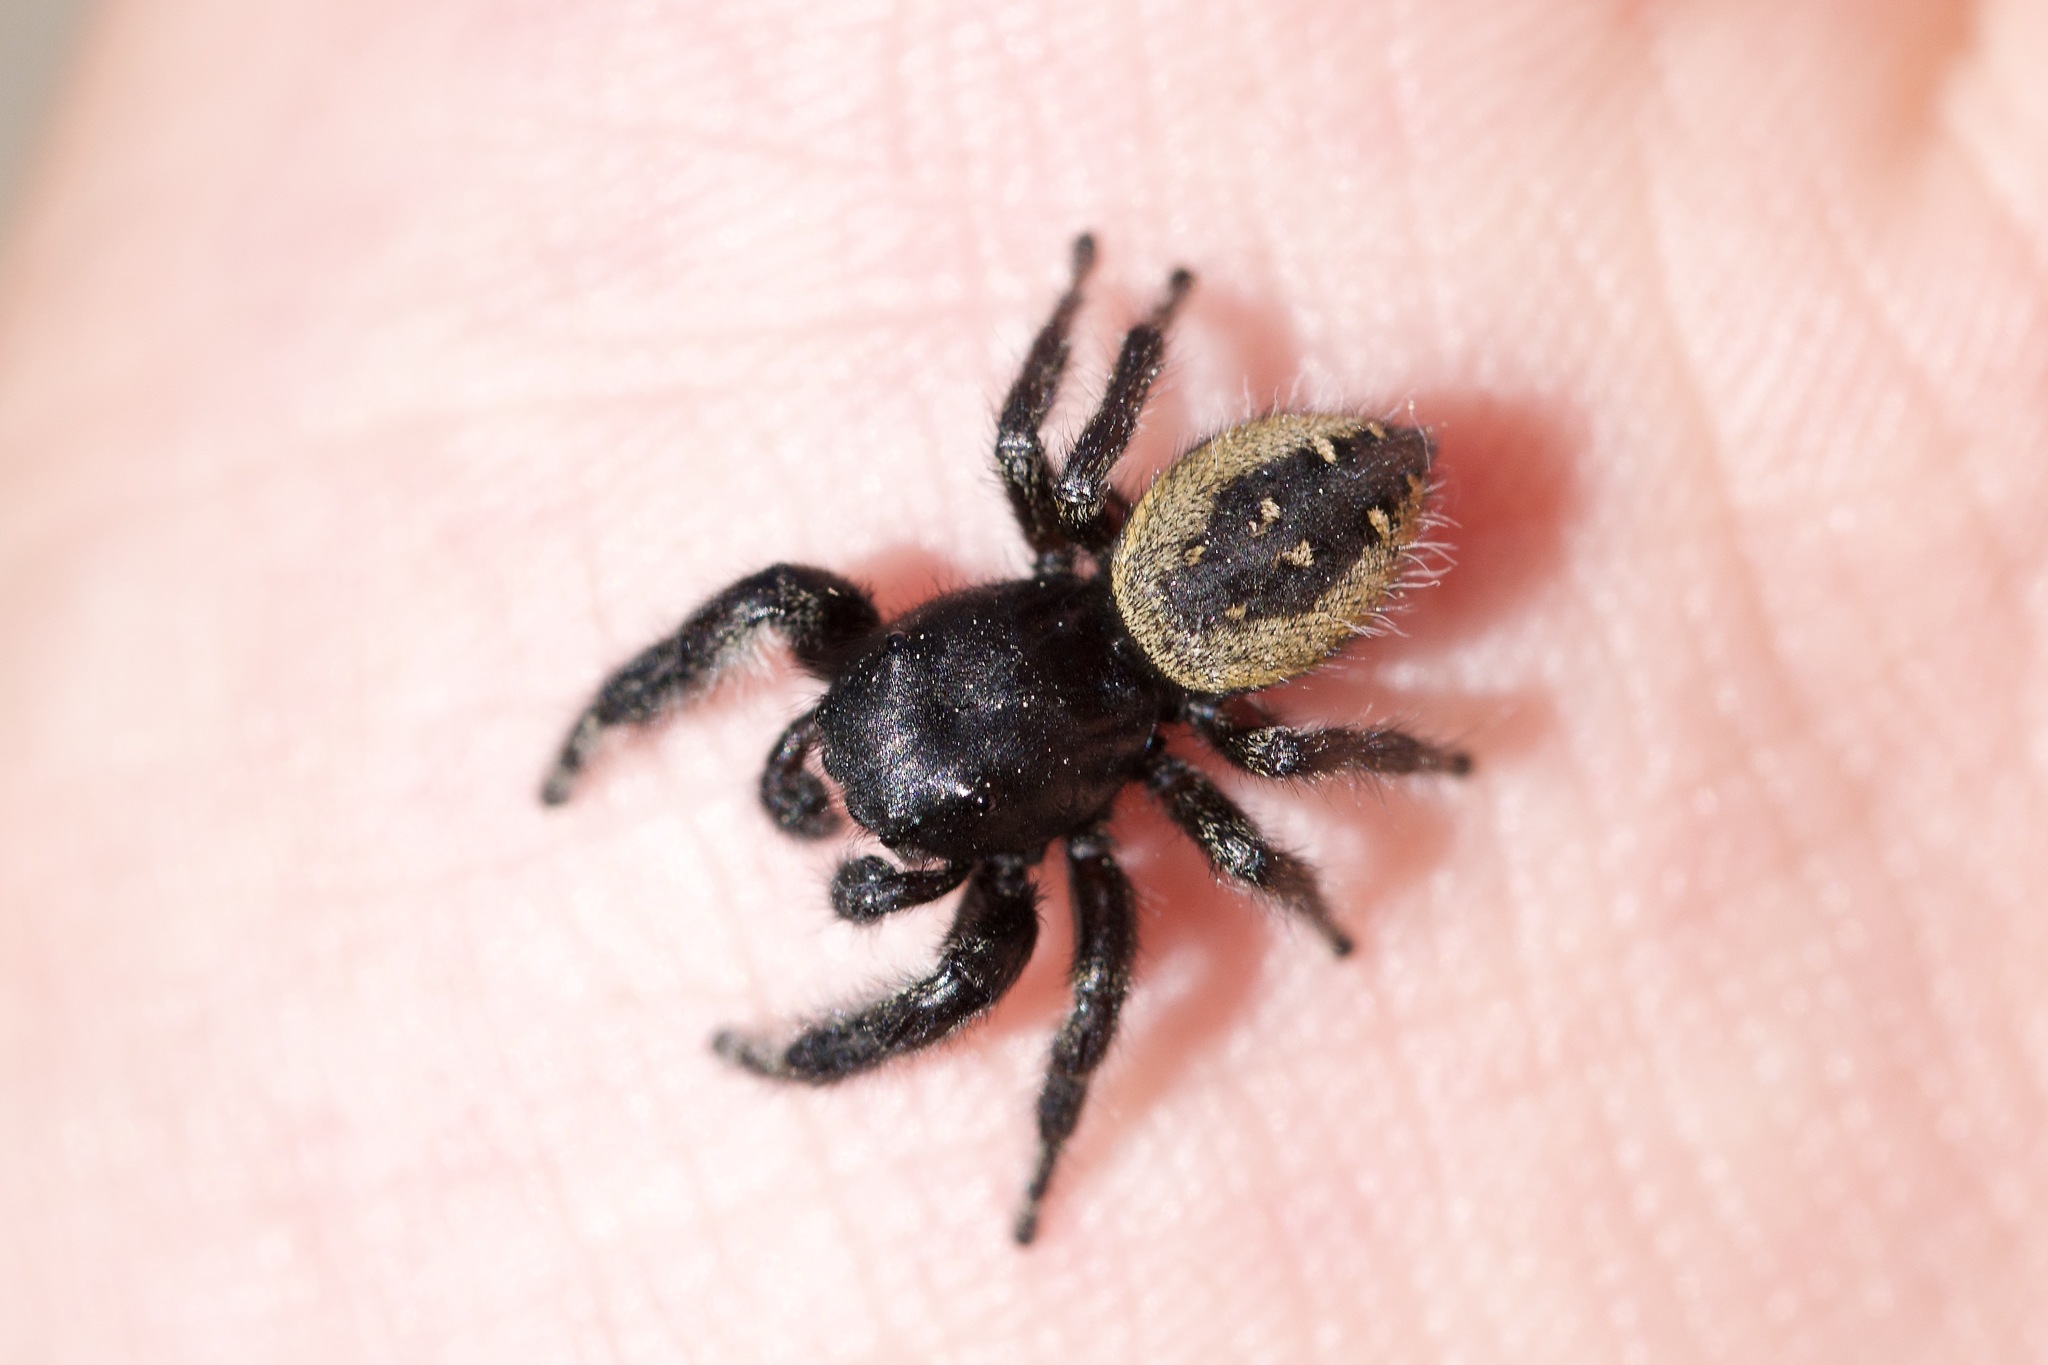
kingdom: Animalia
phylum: Arthropoda
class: Arachnida
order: Araneae
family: Salticidae
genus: Phidippus
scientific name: Phidippus purpuratus
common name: Marbled purple jumping spider
